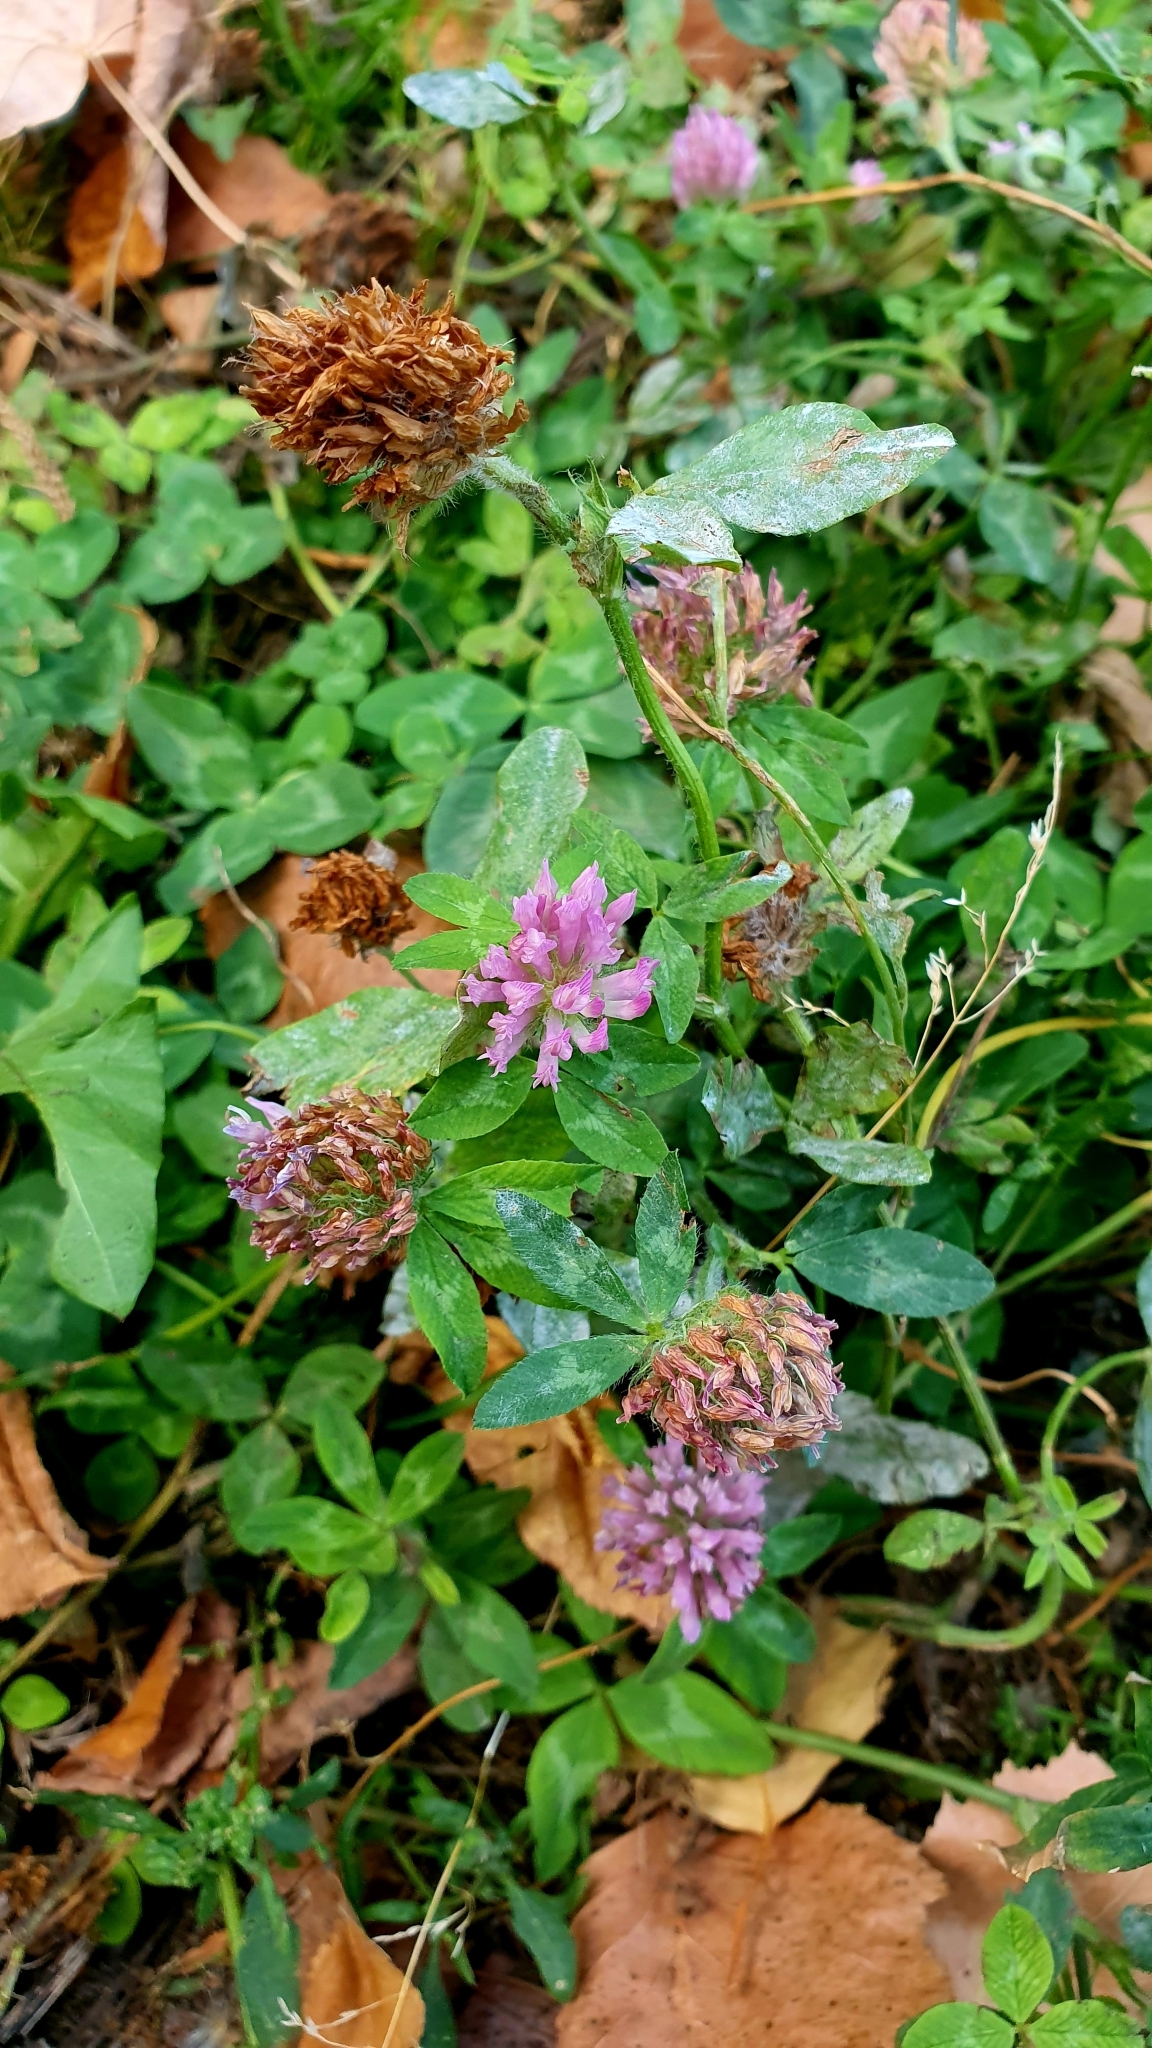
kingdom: Plantae
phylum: Tracheophyta
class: Magnoliopsida
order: Fabales
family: Fabaceae
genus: Trifolium
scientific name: Trifolium pratense
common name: Red clover
